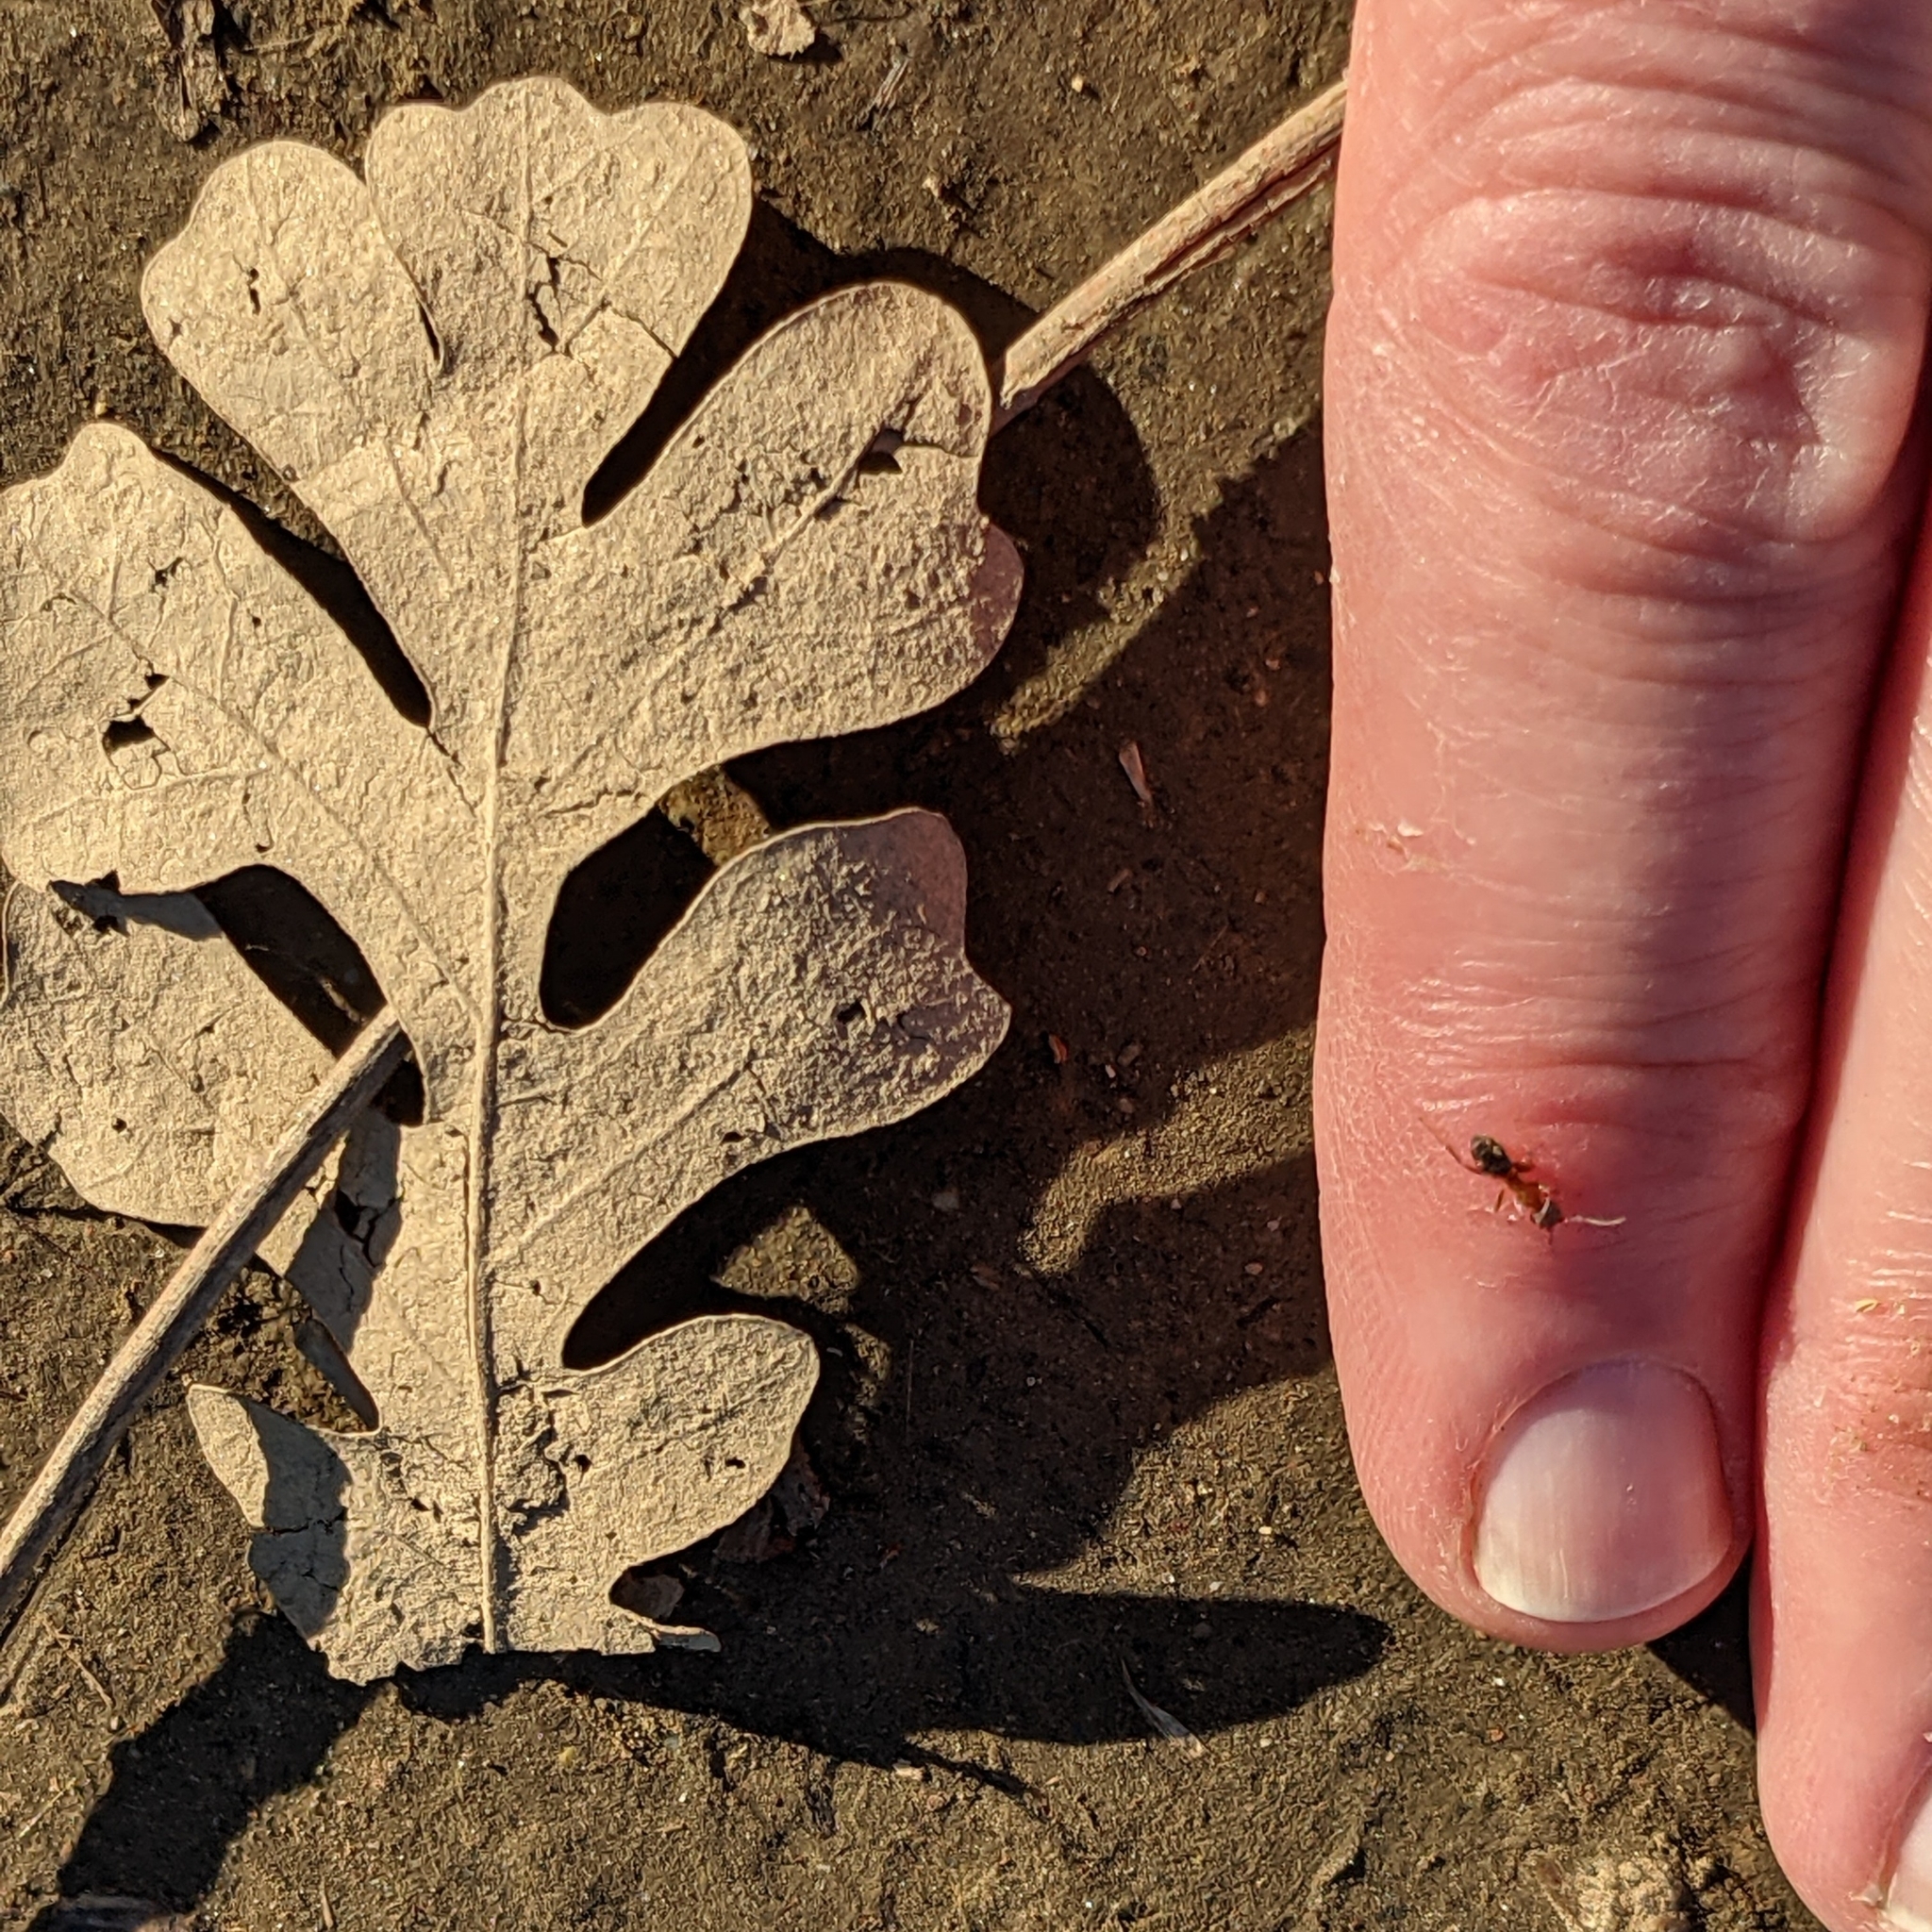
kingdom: Plantae
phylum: Tracheophyta
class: Magnoliopsida
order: Fagales
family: Fagaceae
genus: Quercus
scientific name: Quercus lobata
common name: Valley oak
